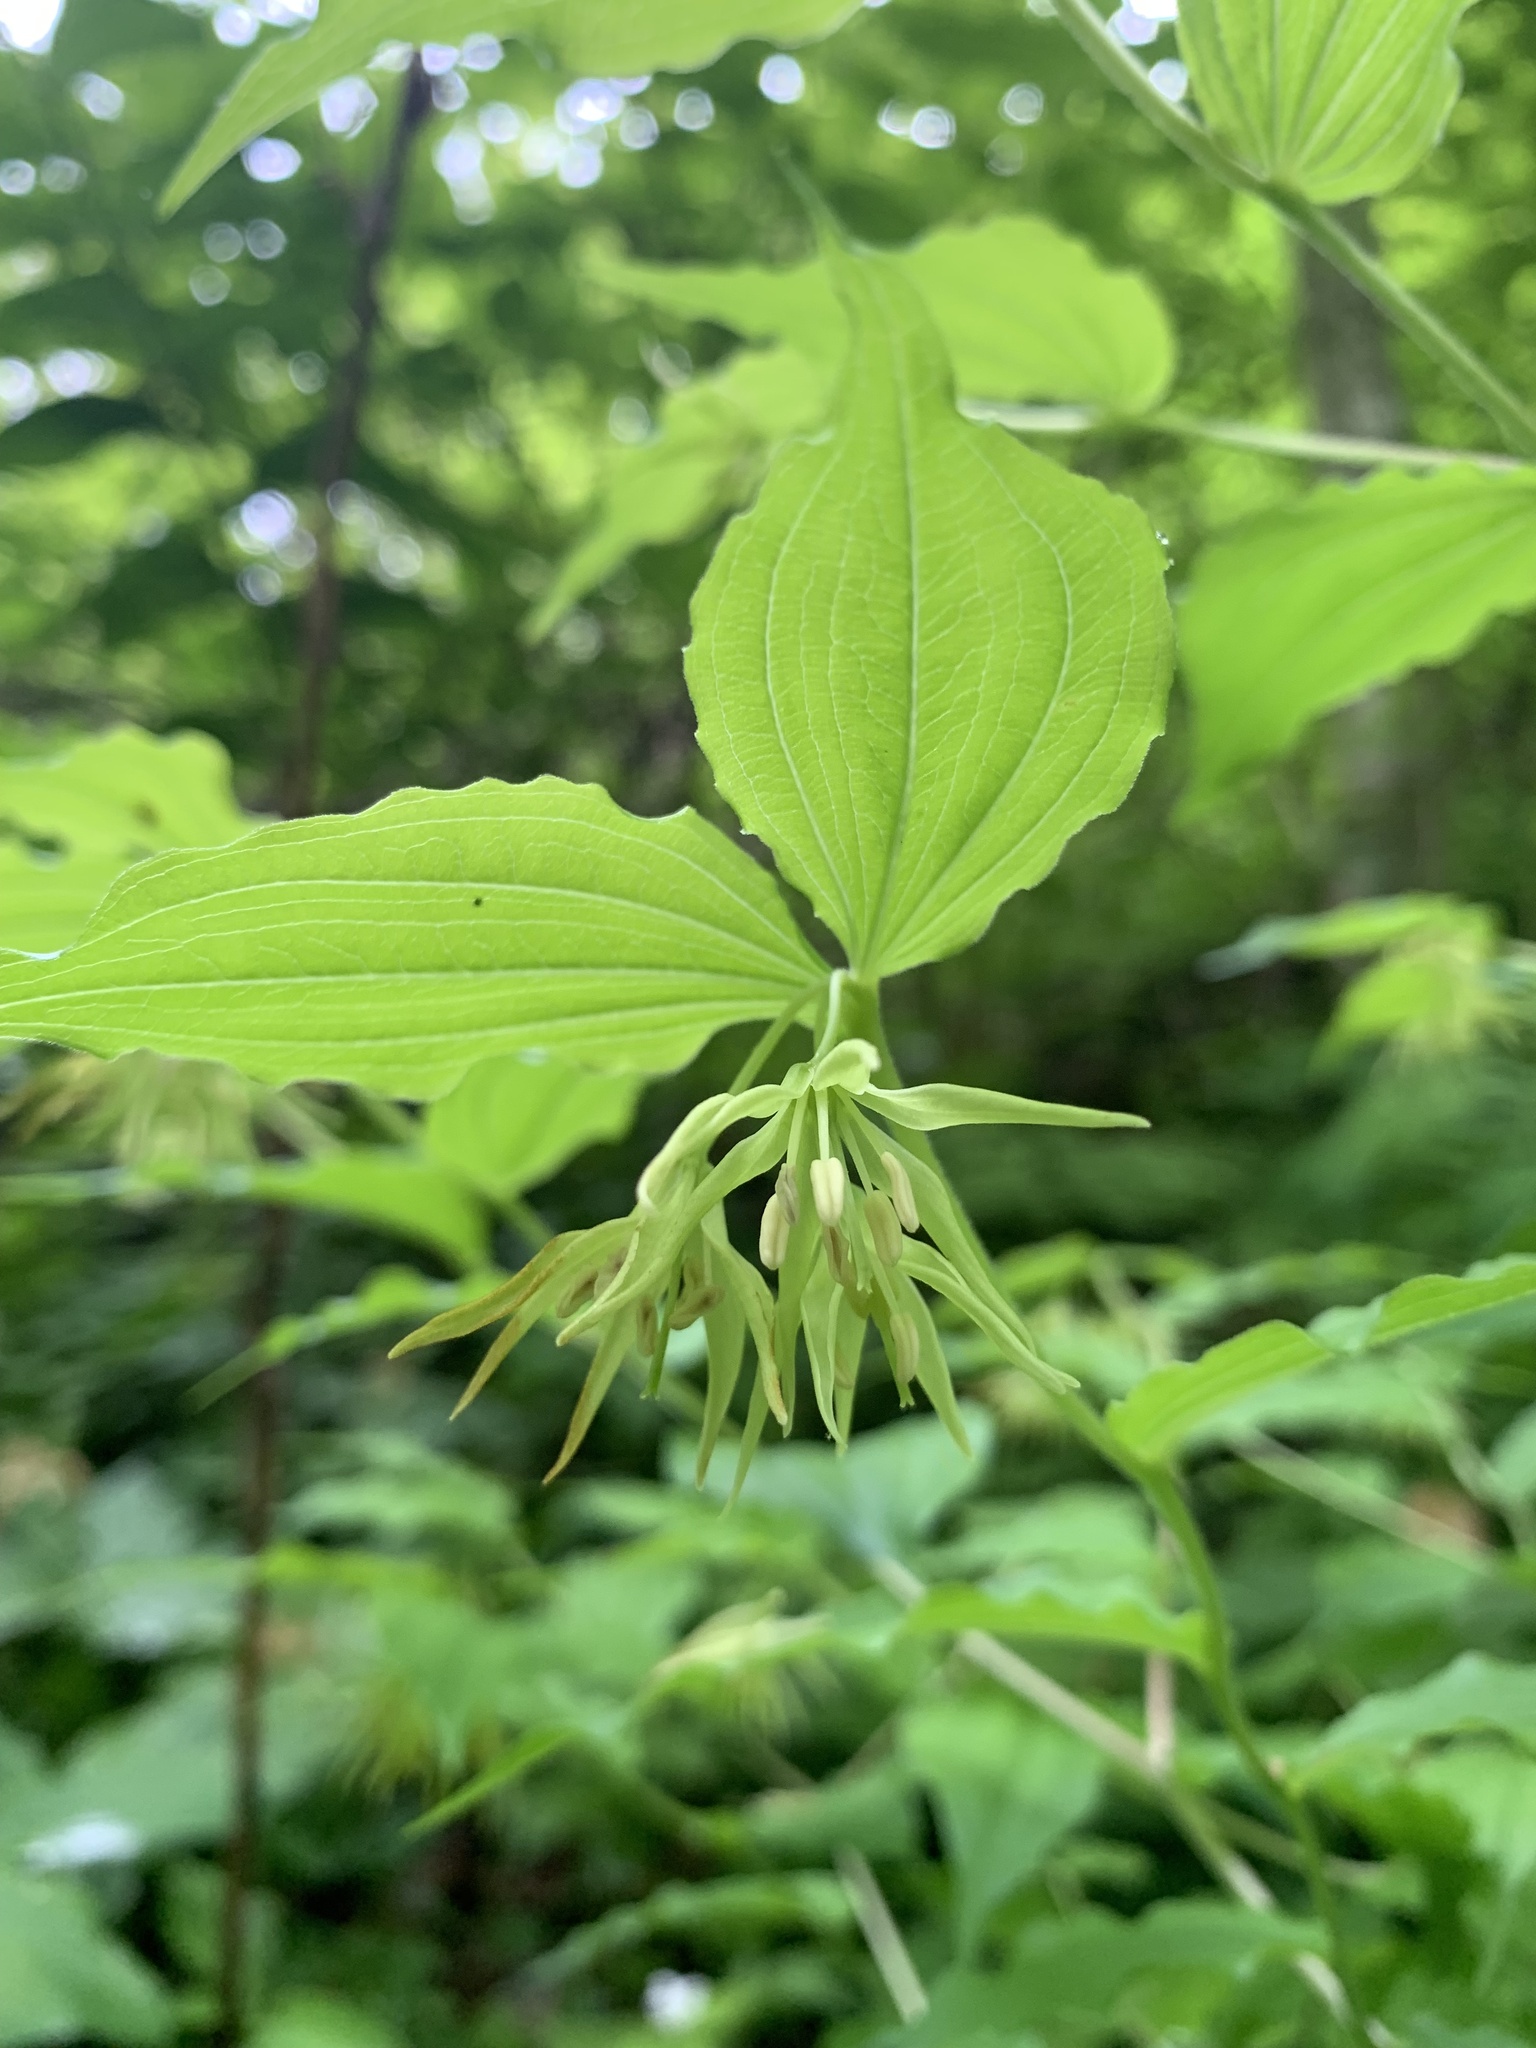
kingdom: Plantae
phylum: Tracheophyta
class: Liliopsida
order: Liliales
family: Liliaceae
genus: Prosartes
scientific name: Prosartes lanuginosa
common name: Hairy mandarin
